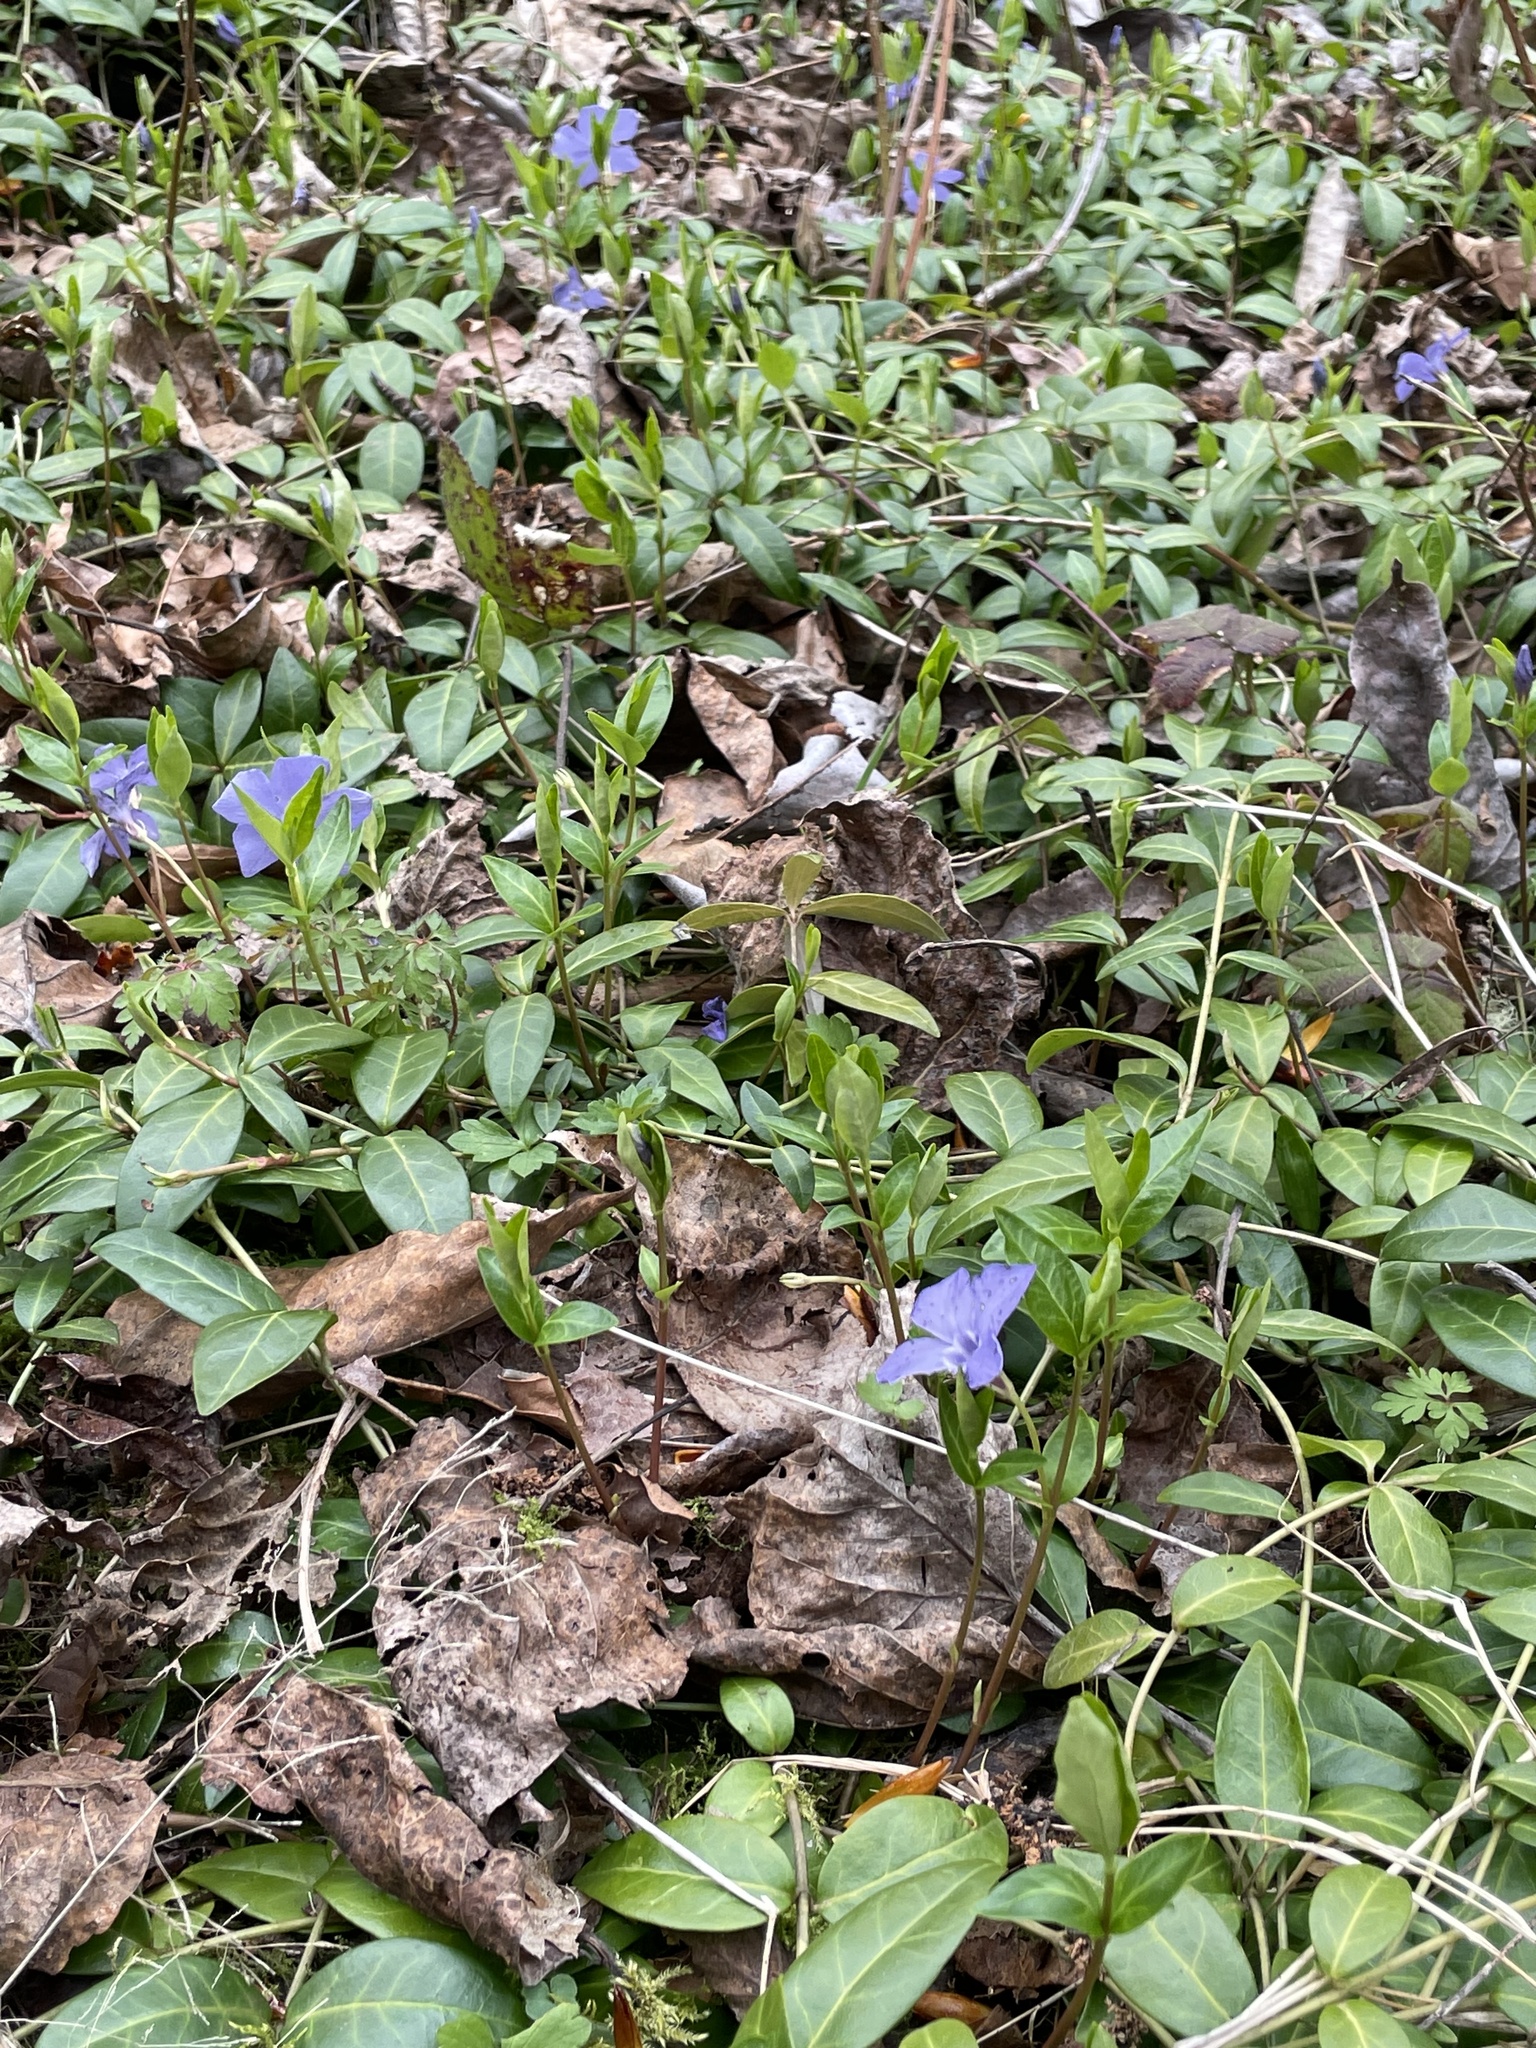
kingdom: Plantae
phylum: Tracheophyta
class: Magnoliopsida
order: Gentianales
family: Apocynaceae
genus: Vinca
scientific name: Vinca minor
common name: Lesser periwinkle
